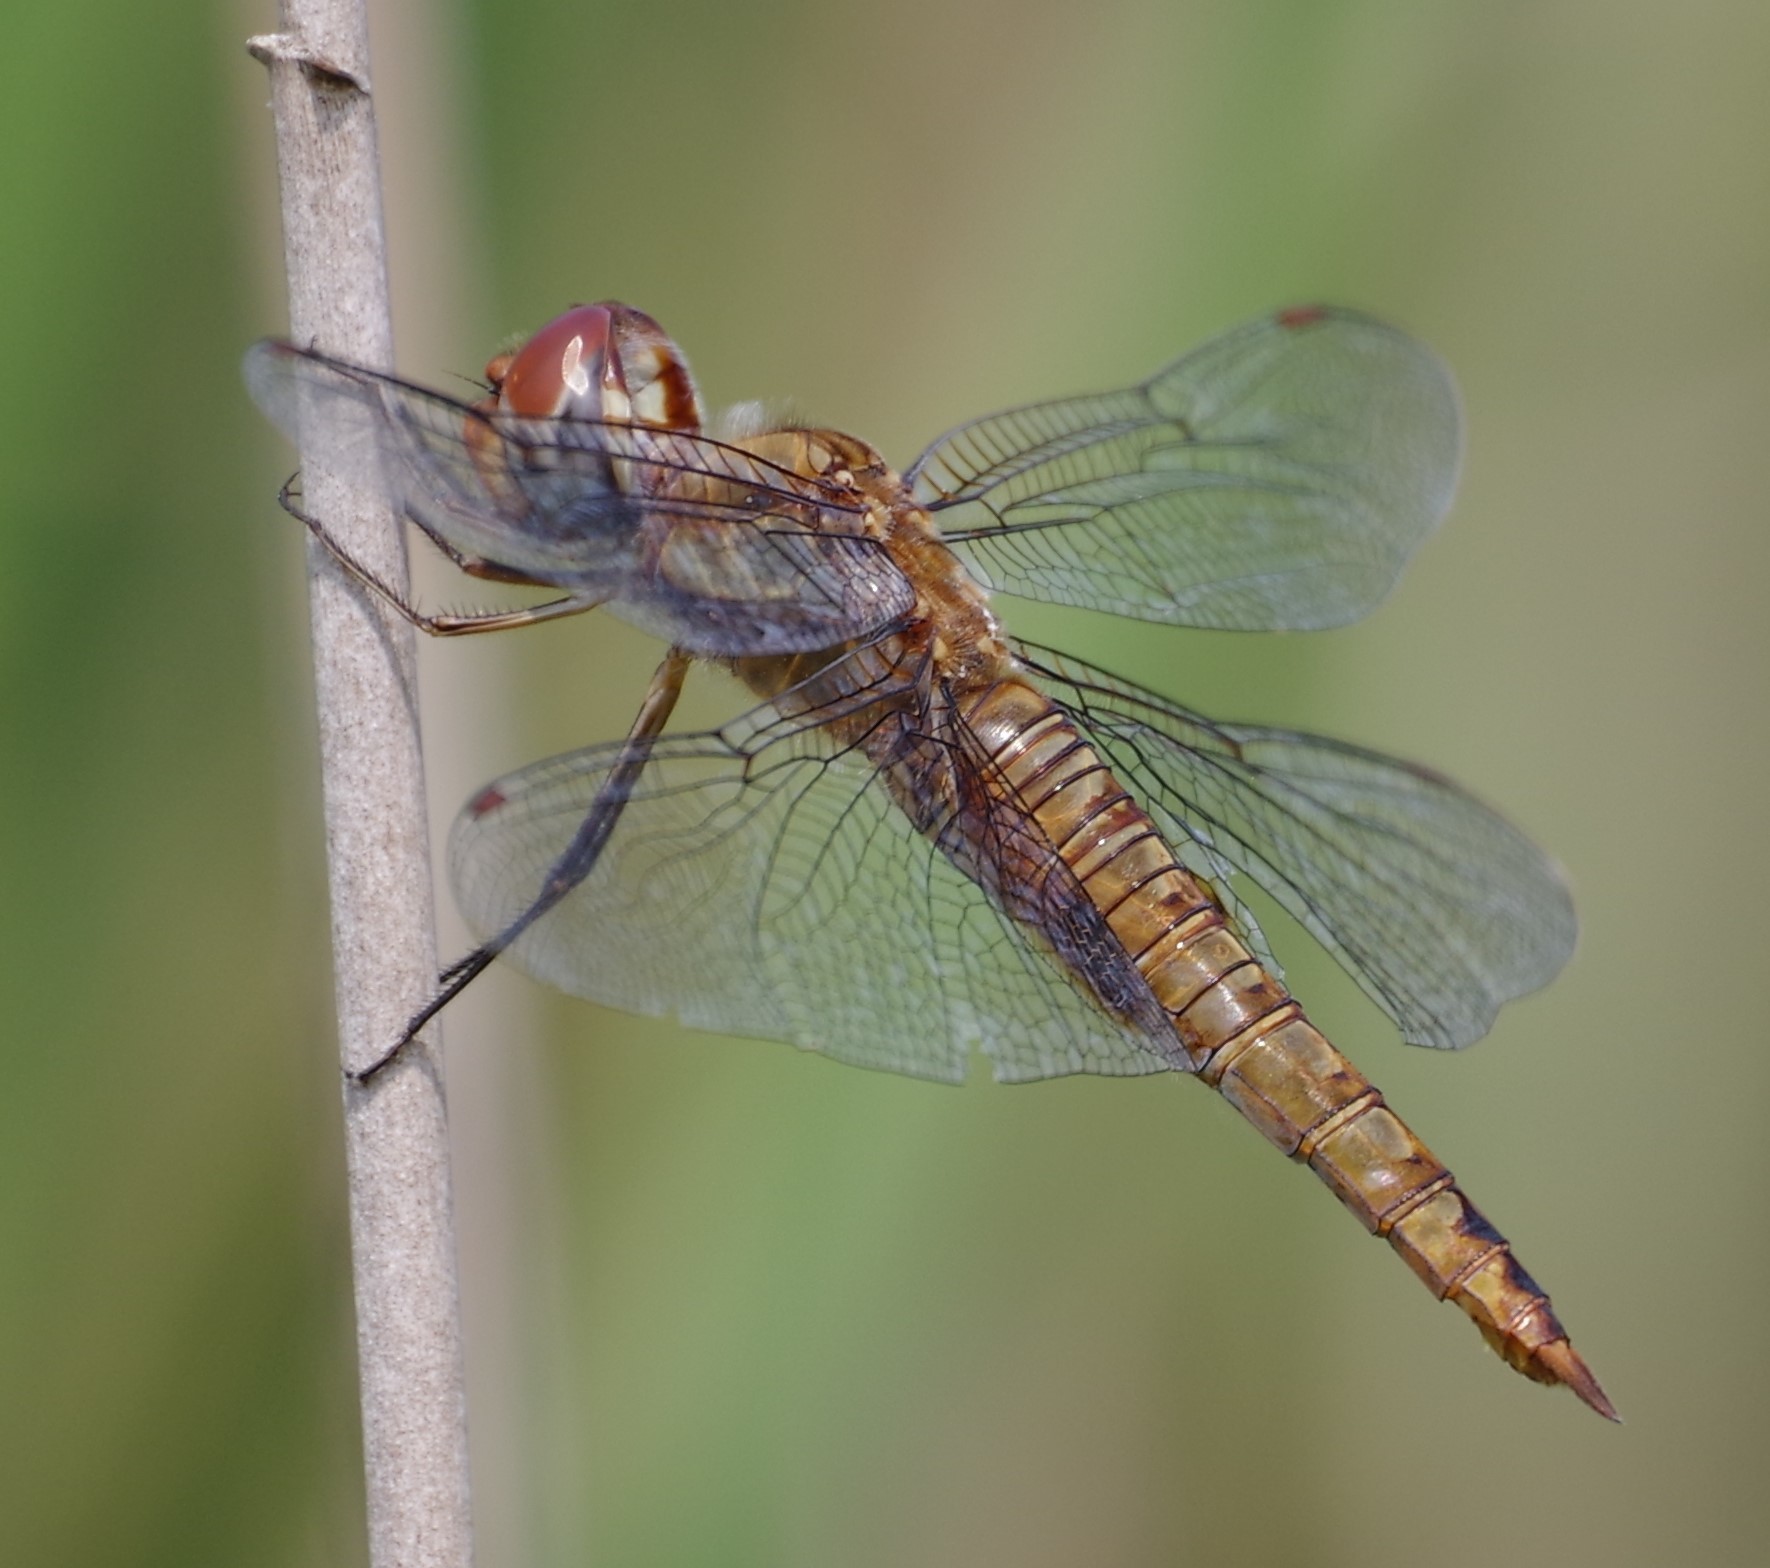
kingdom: Animalia
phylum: Arthropoda
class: Insecta
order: Odonata
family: Libellulidae
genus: Pantala
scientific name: Pantala hymenaea
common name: Spot-winged glider
